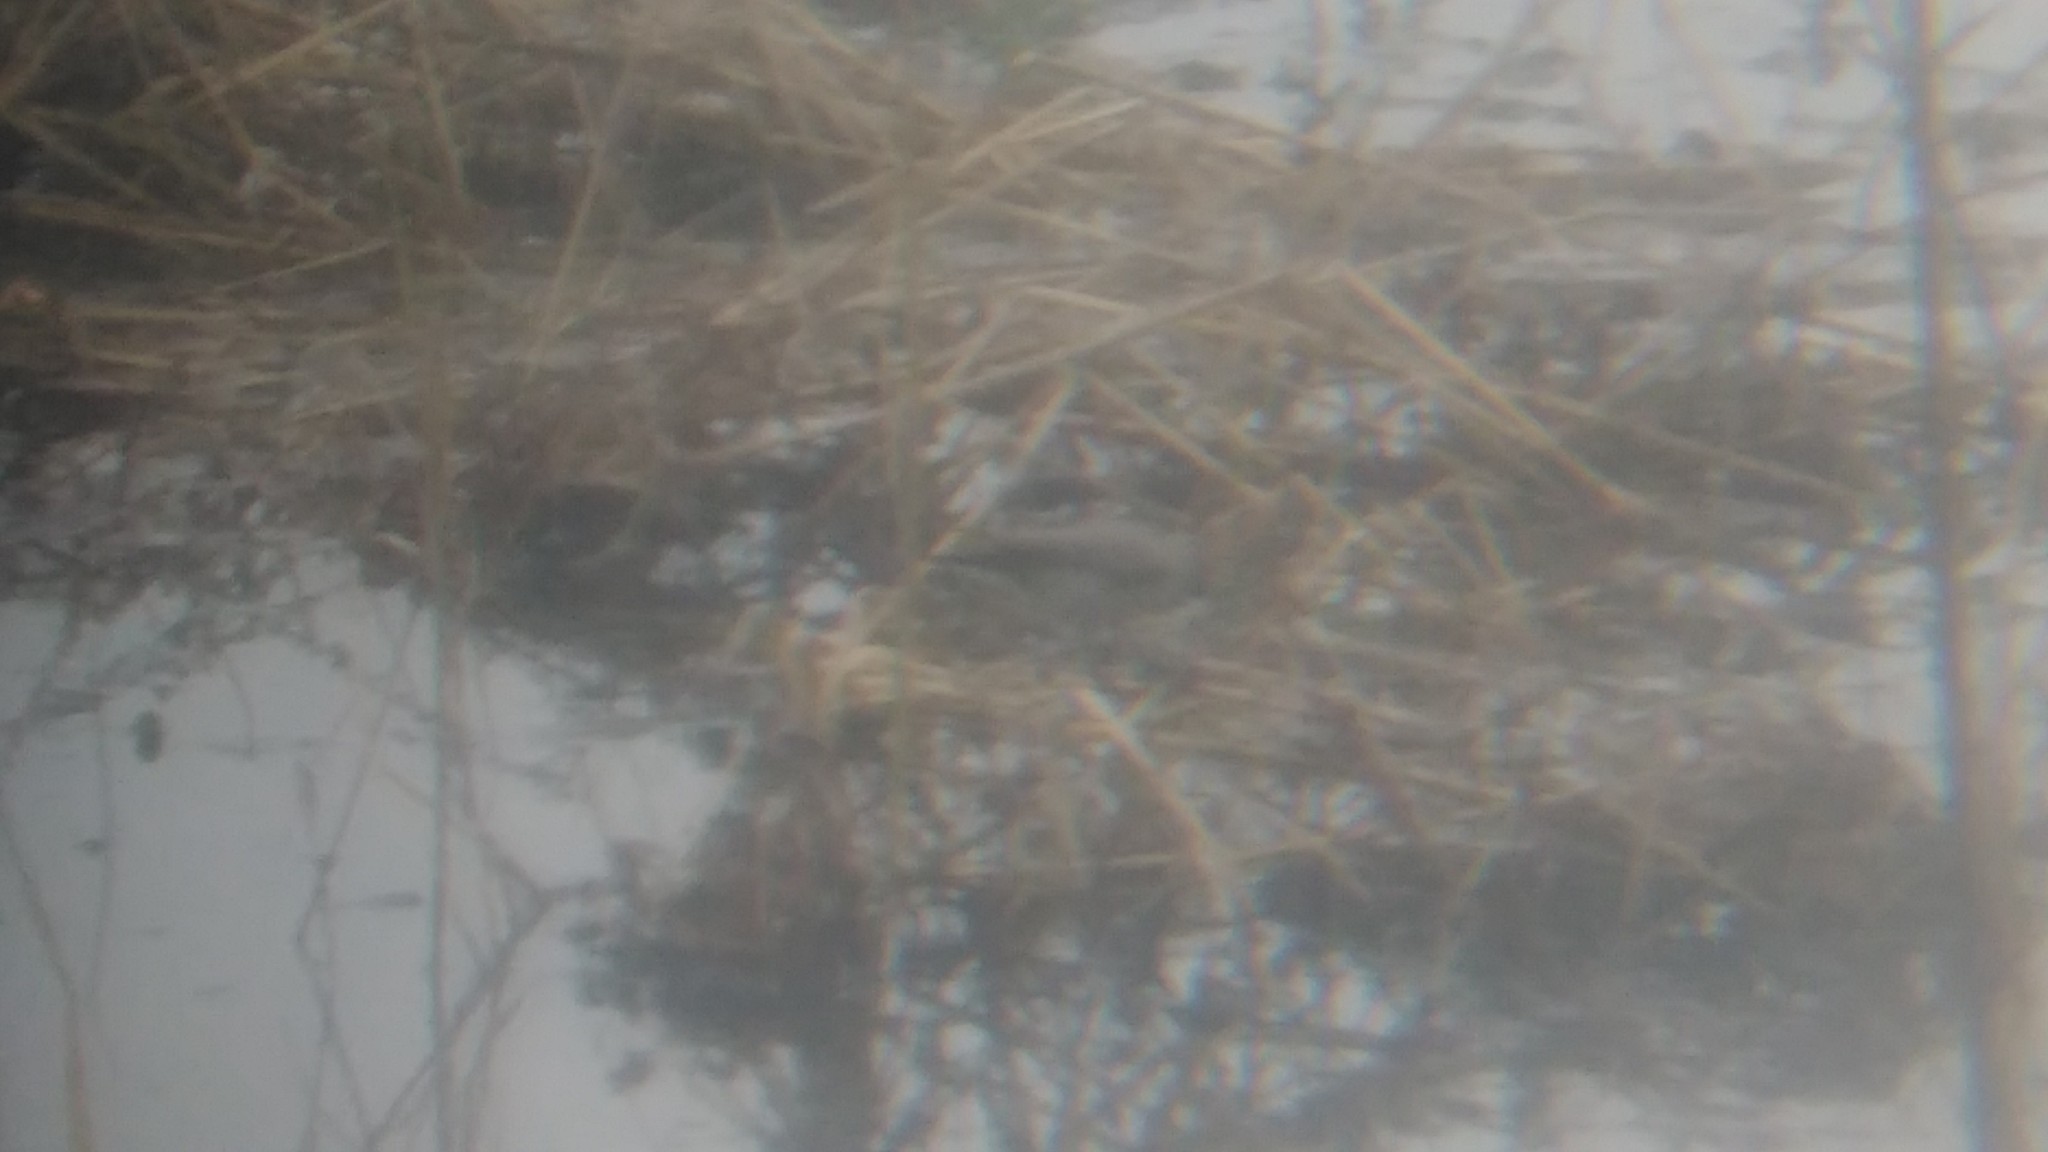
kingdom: Animalia
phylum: Chordata
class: Aves
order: Passeriformes
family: Tyrannidae
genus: Muscisaxicola
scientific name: Muscisaxicola maclovianus
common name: Dark-faced ground tyrant
